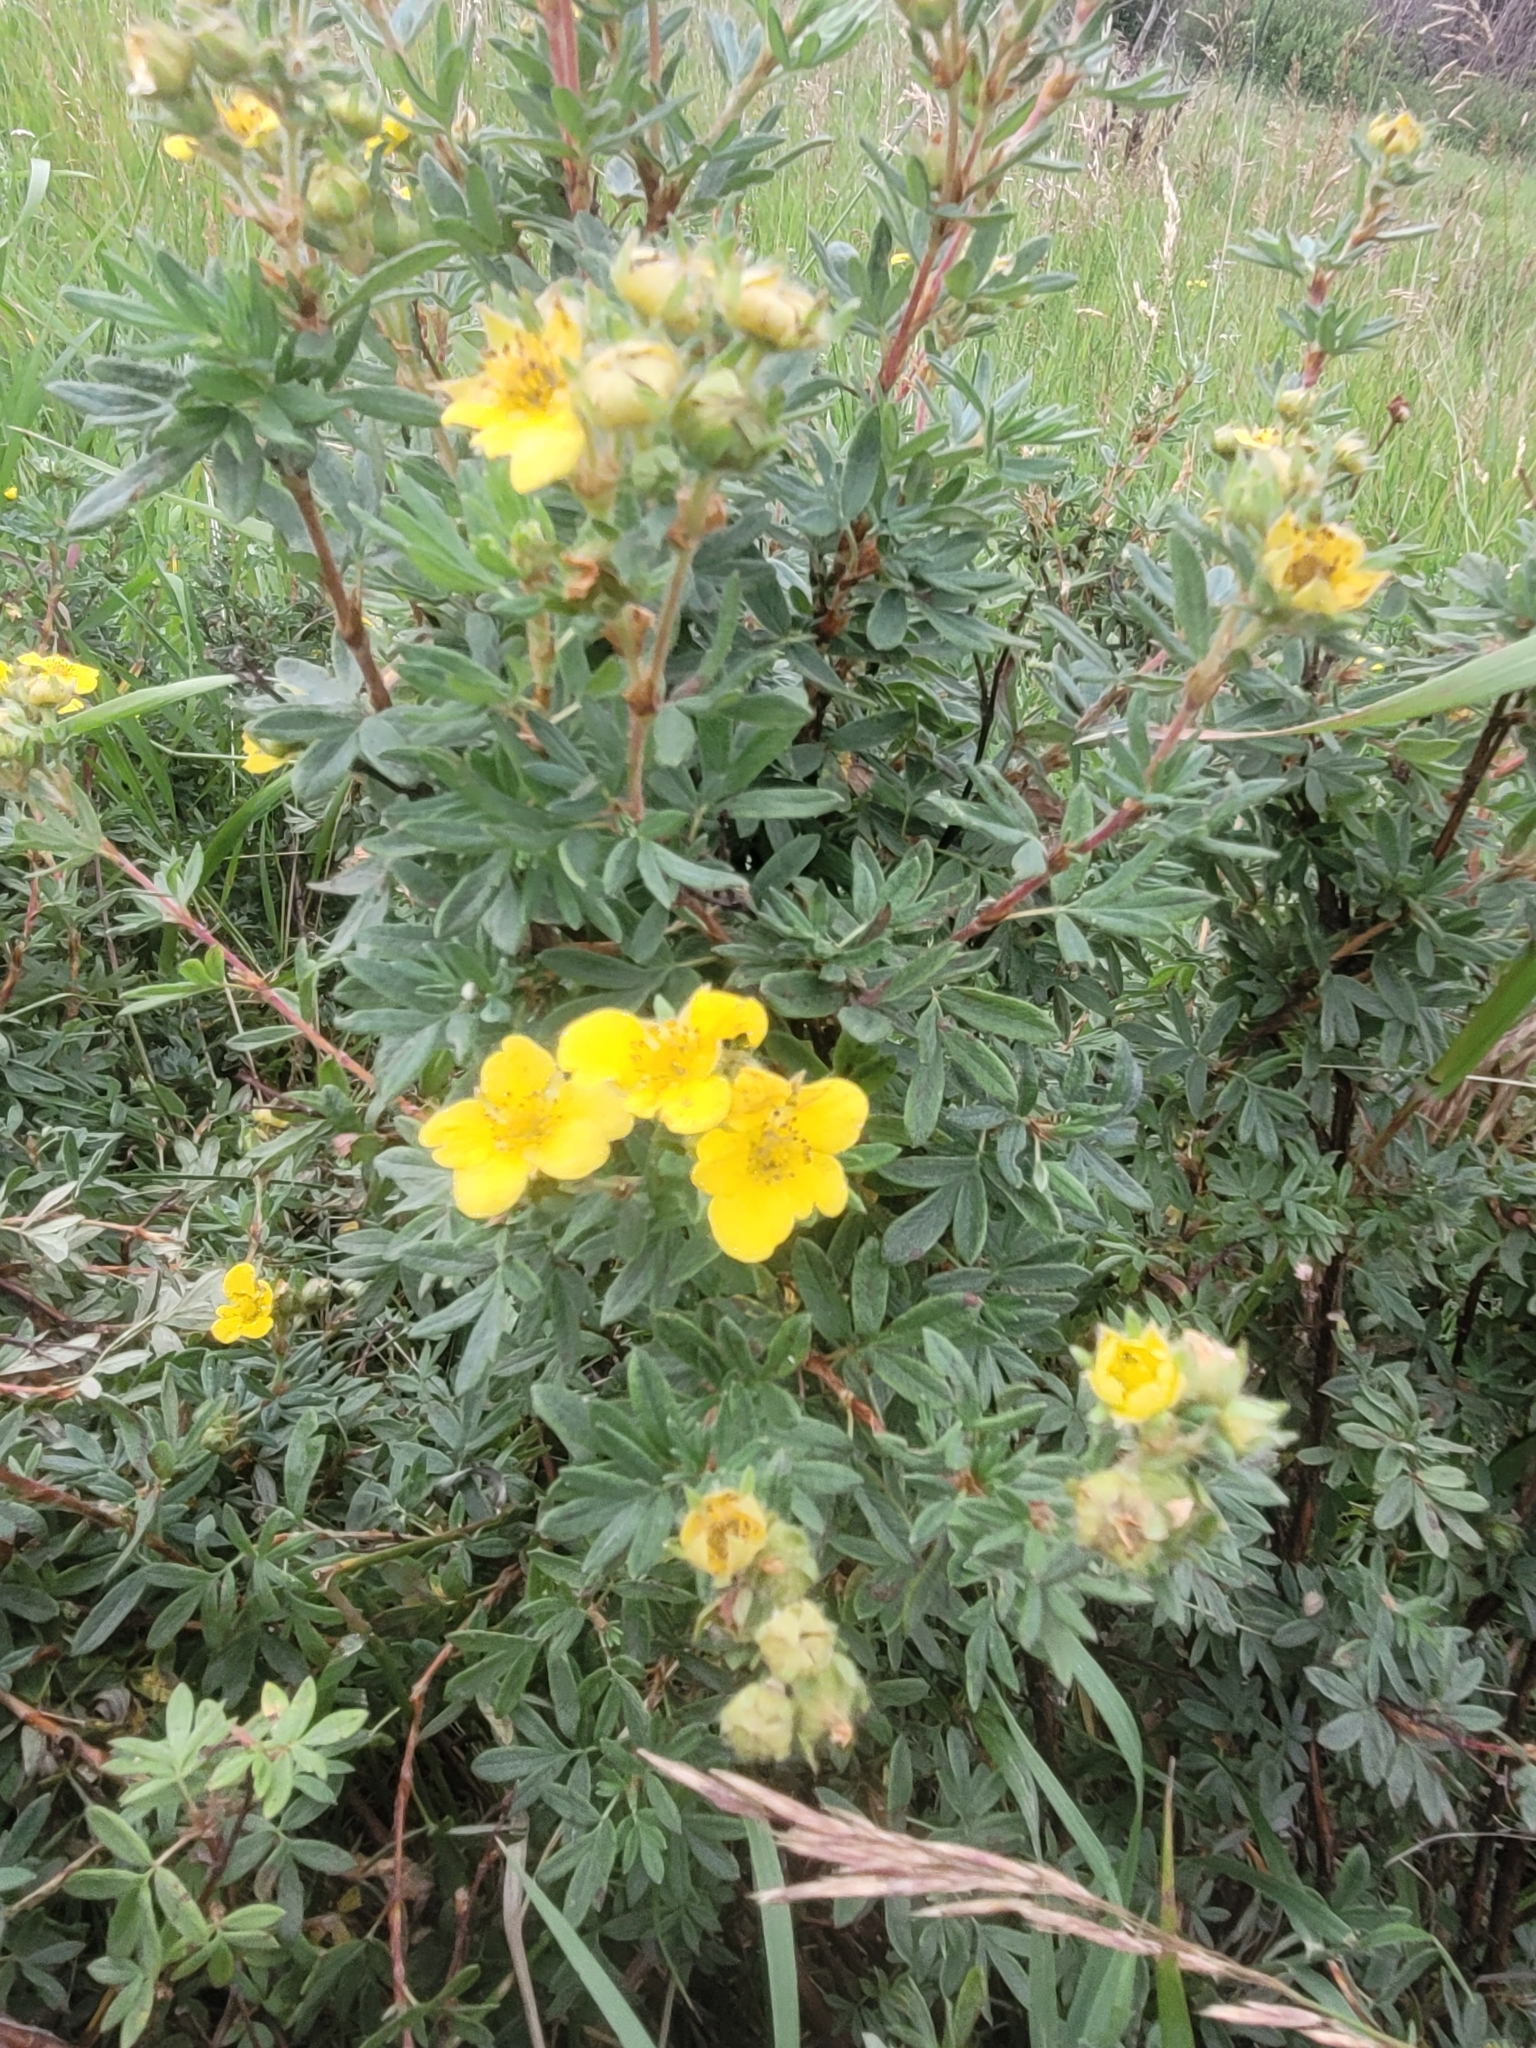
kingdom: Plantae
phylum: Tracheophyta
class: Magnoliopsida
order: Rosales
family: Rosaceae
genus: Dasiphora
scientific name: Dasiphora fruticosa
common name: Shrubby cinquefoil
